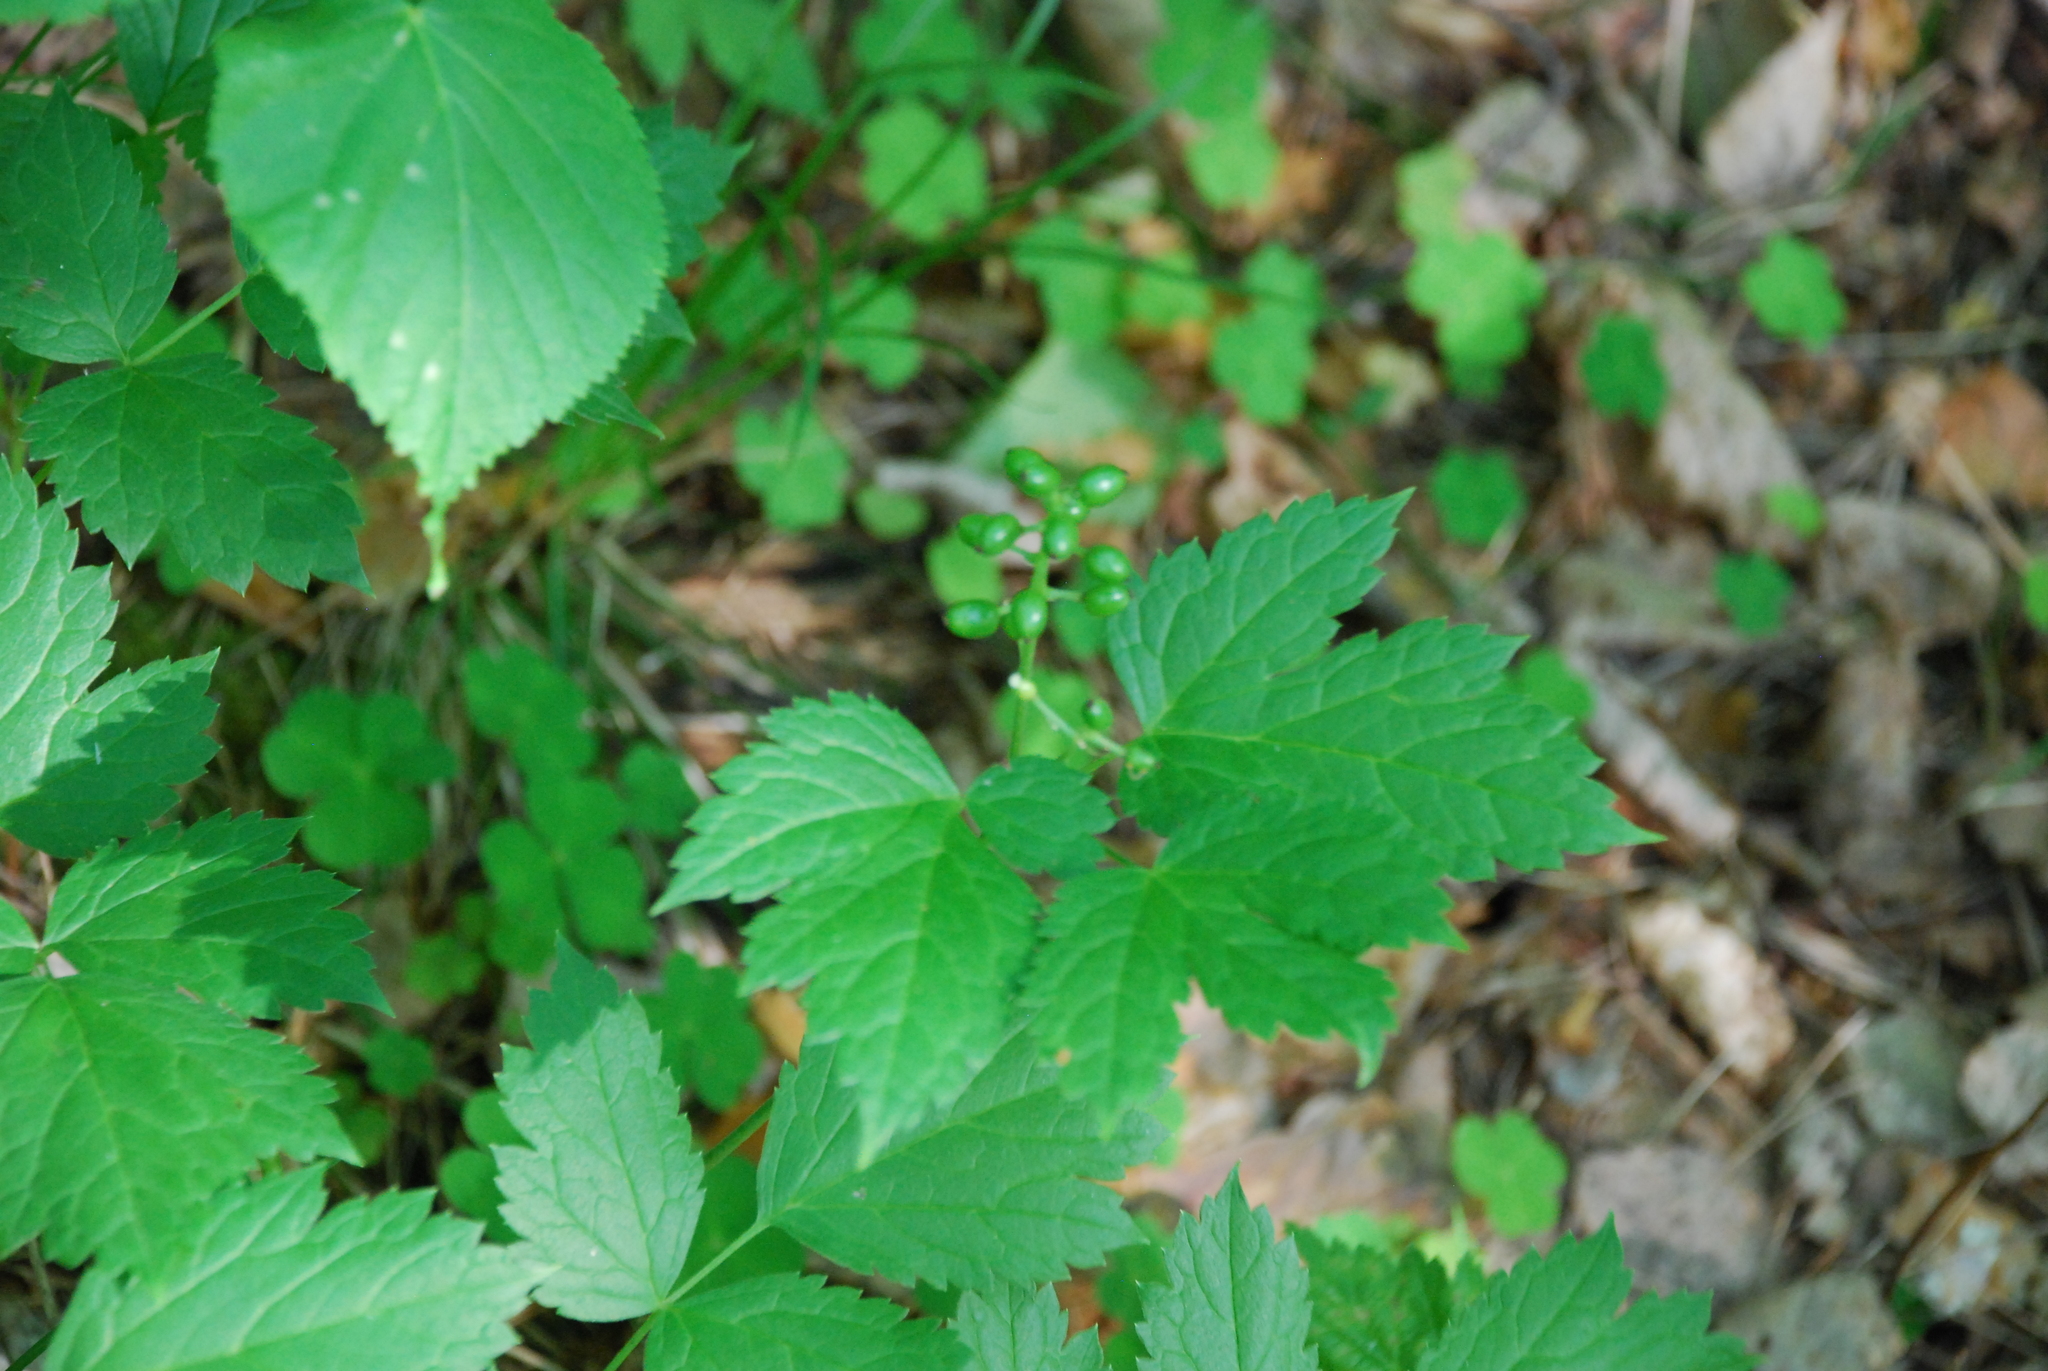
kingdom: Plantae
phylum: Tracheophyta
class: Magnoliopsida
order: Ranunculales
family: Ranunculaceae
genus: Actaea
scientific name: Actaea spicata
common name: Baneberry
